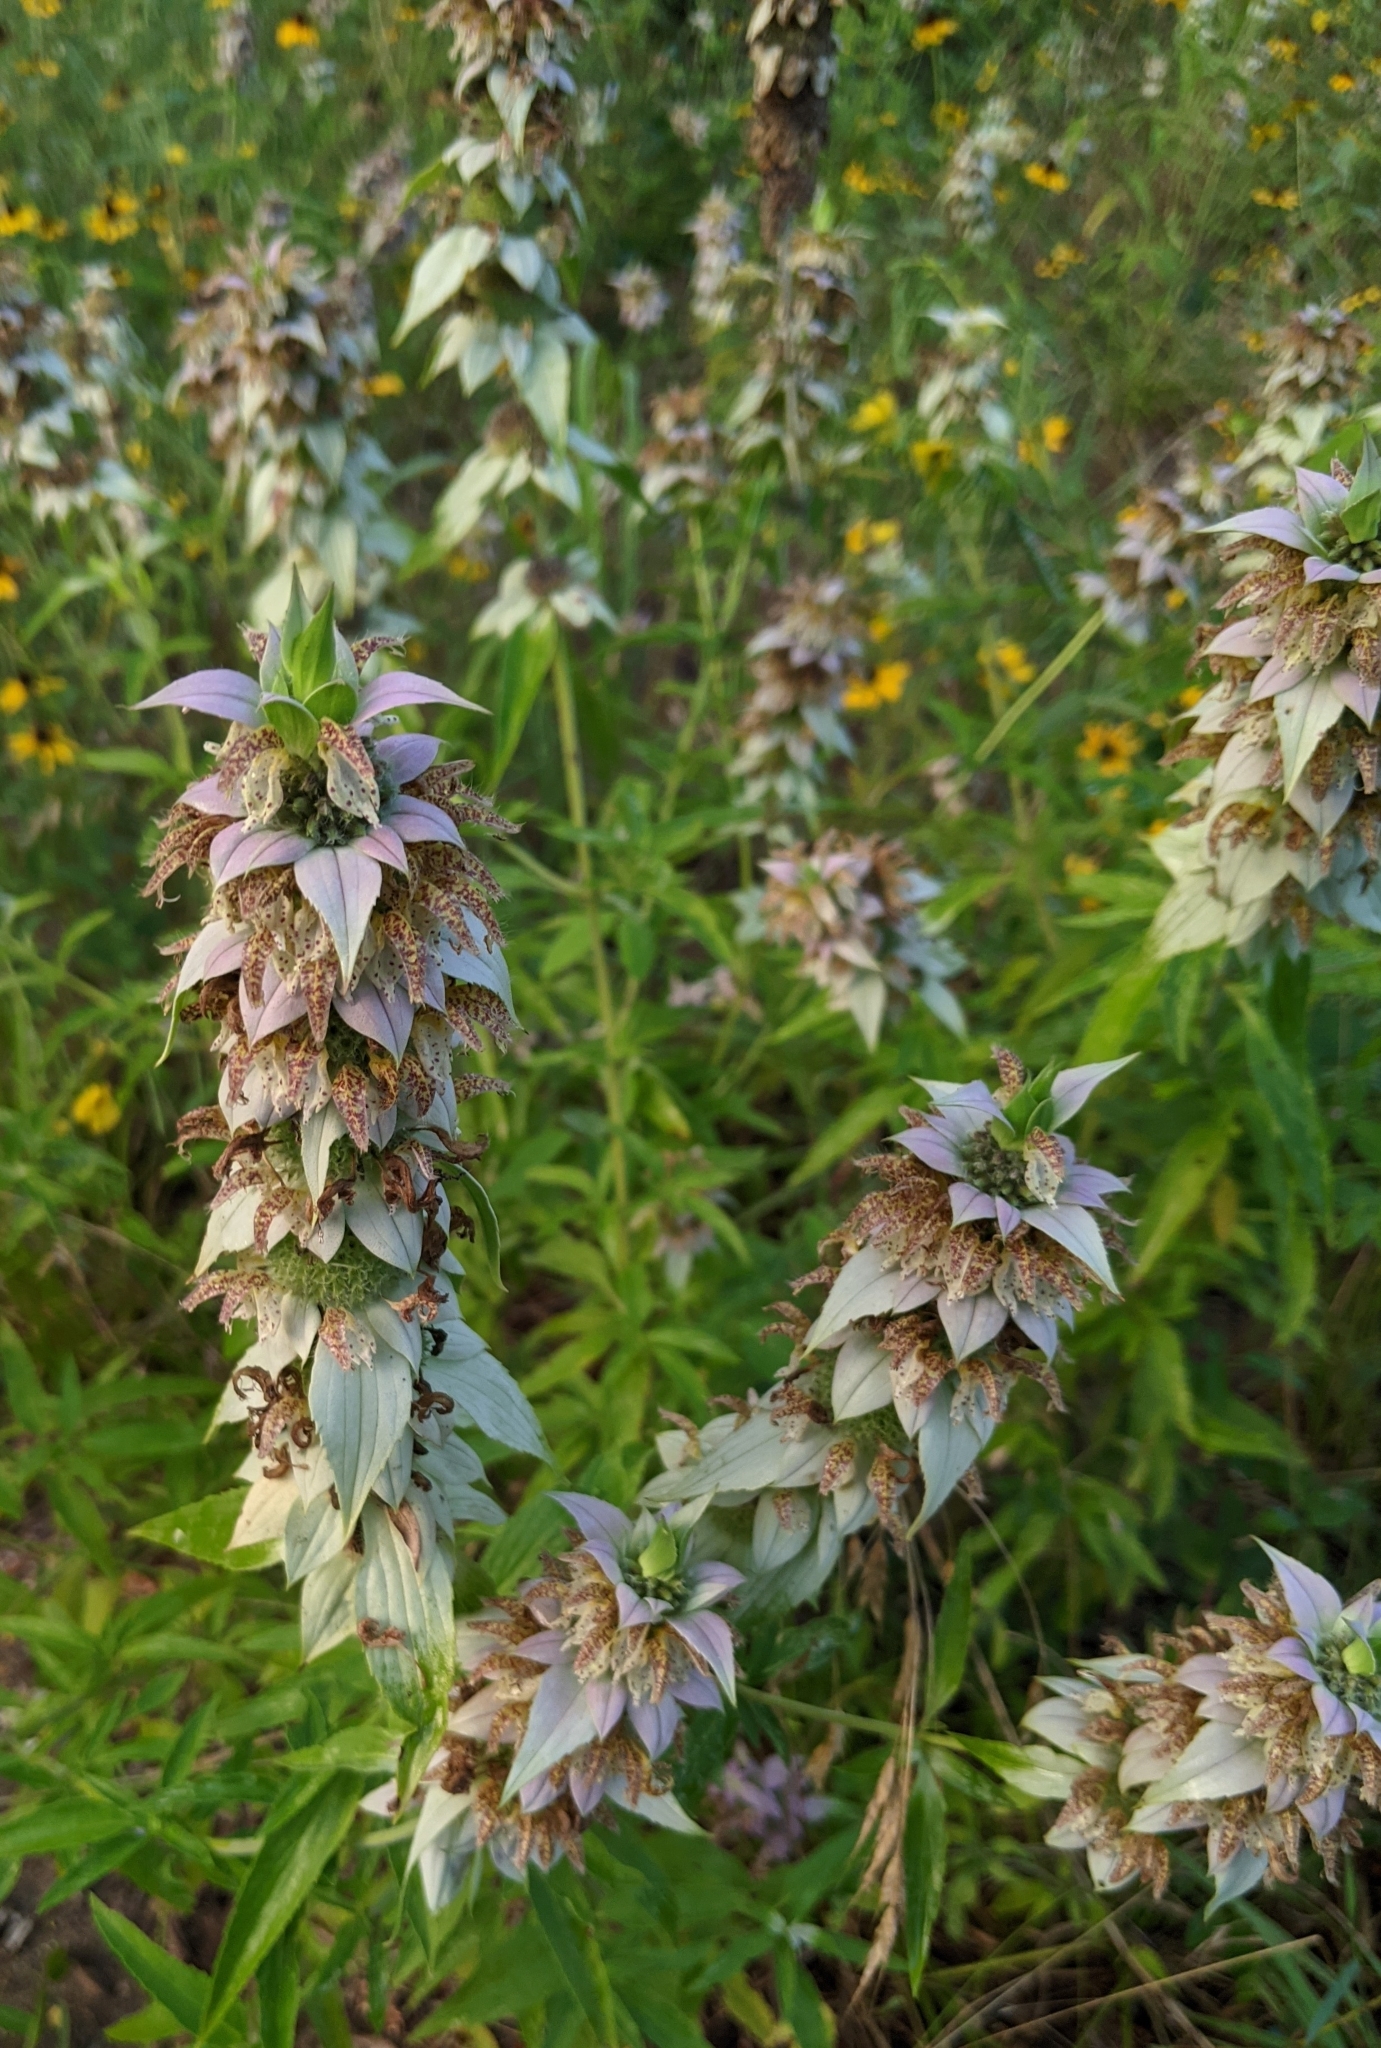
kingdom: Plantae
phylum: Tracheophyta
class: Magnoliopsida
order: Lamiales
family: Lamiaceae
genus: Monarda
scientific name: Monarda punctata
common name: Dotted monarda
